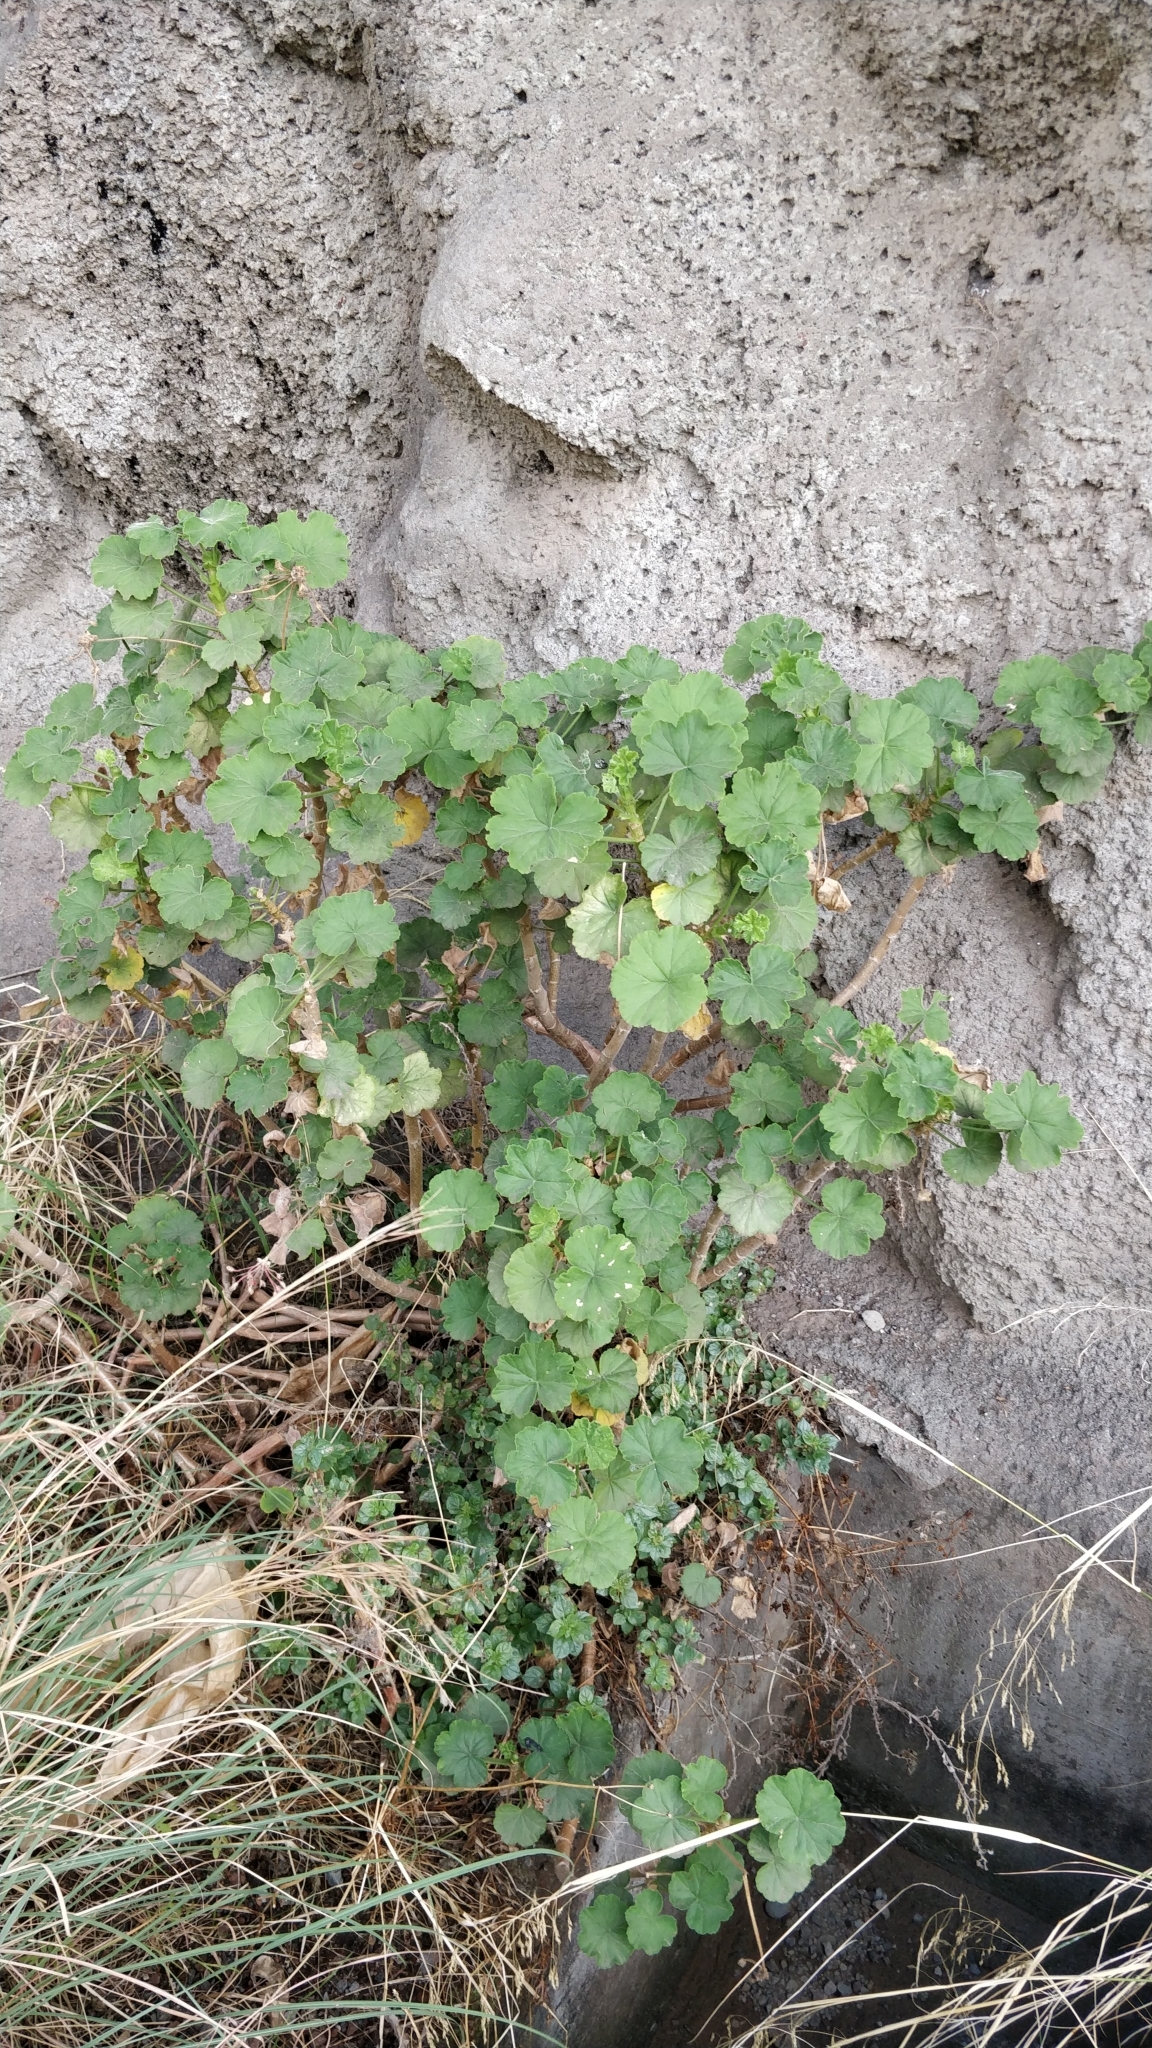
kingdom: Plantae
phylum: Tracheophyta
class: Magnoliopsida
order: Geraniales
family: Geraniaceae
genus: Pelargonium
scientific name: Pelargonium hybridum
